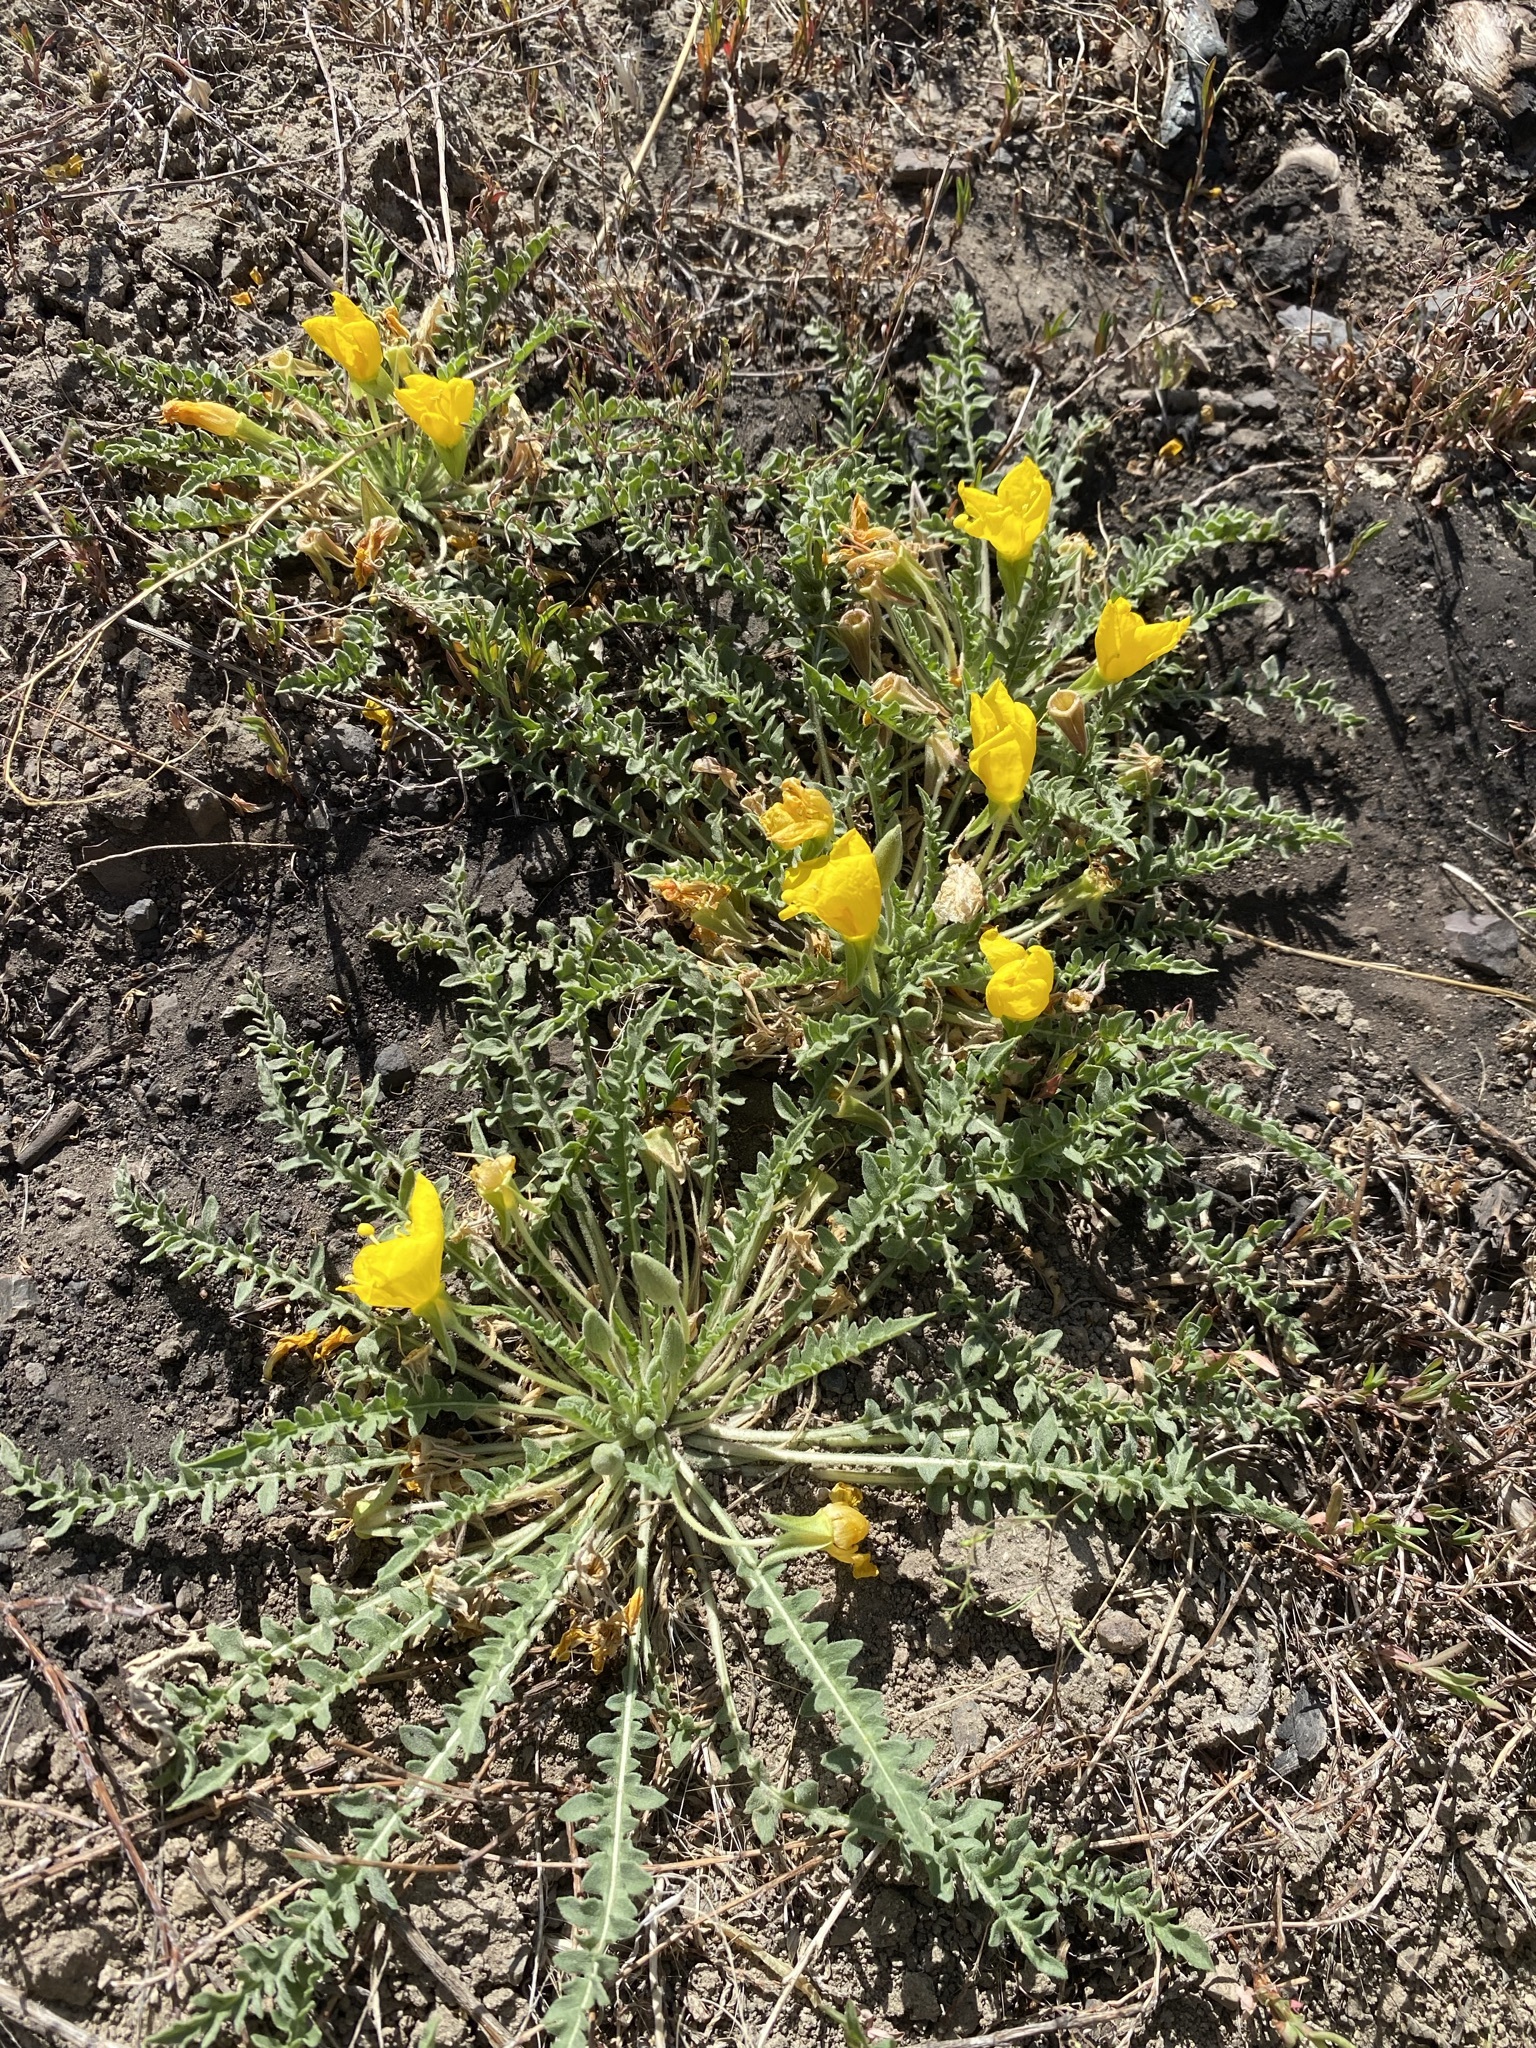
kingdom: Plantae
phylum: Tracheophyta
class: Magnoliopsida
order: Myrtales
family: Onagraceae
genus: Taraxia
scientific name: Taraxia tanacetifolia
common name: Tansyleaf evening primrose
